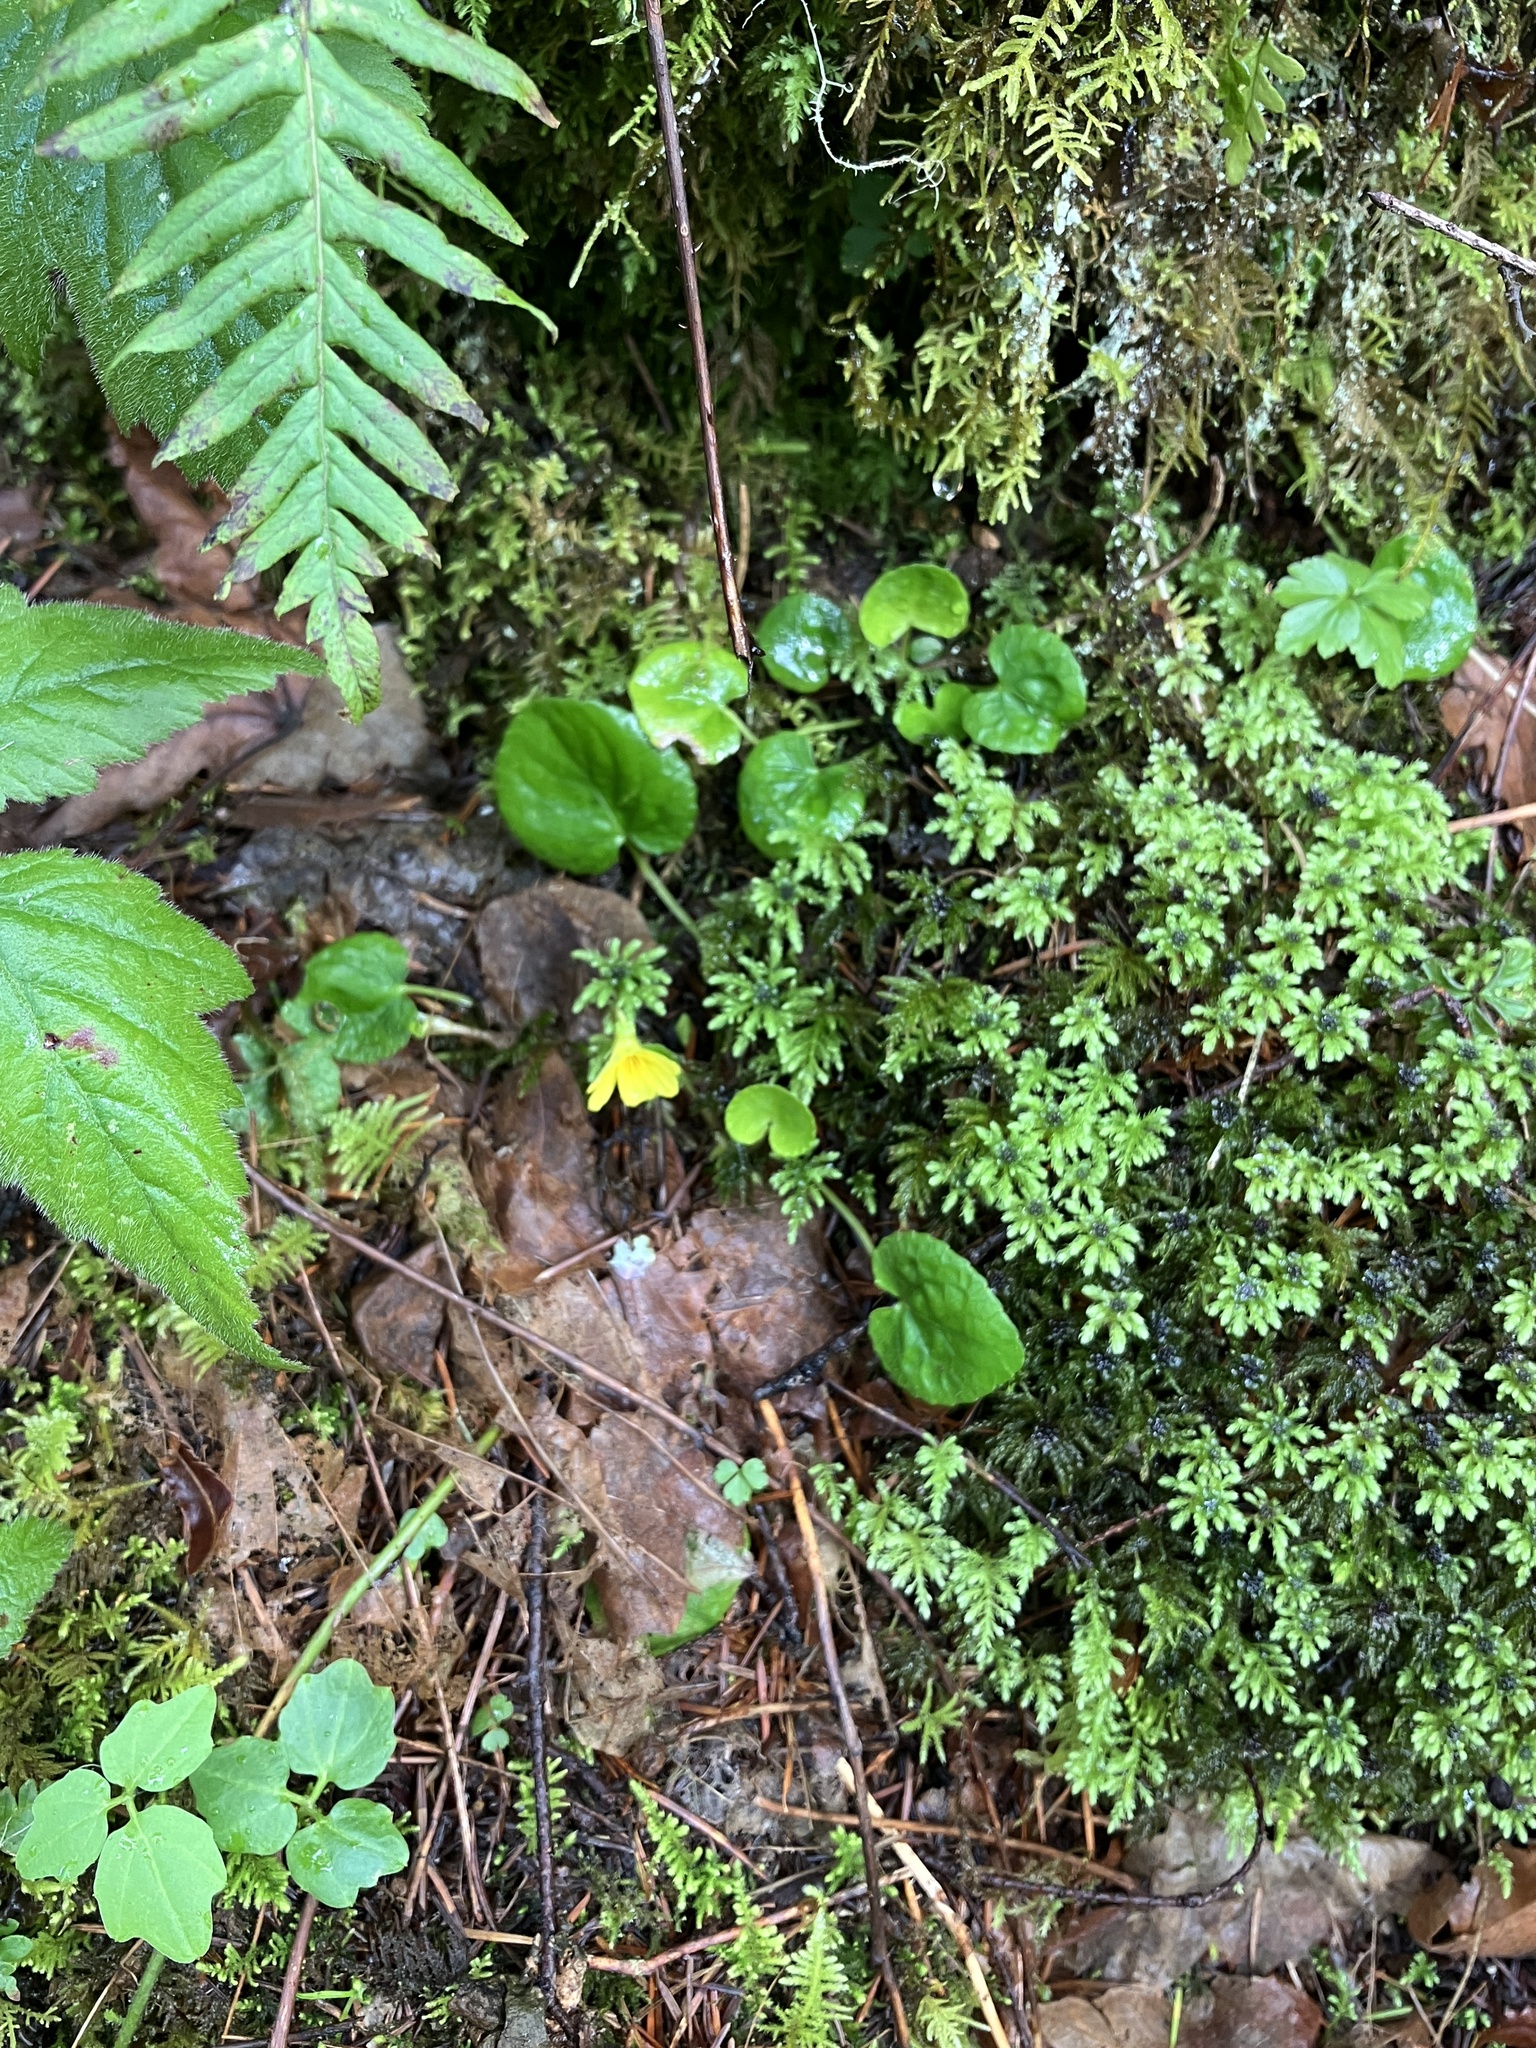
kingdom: Plantae
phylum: Tracheophyta
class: Magnoliopsida
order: Malpighiales
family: Violaceae
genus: Viola
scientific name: Viola sempervirens
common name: Evergreen violet
